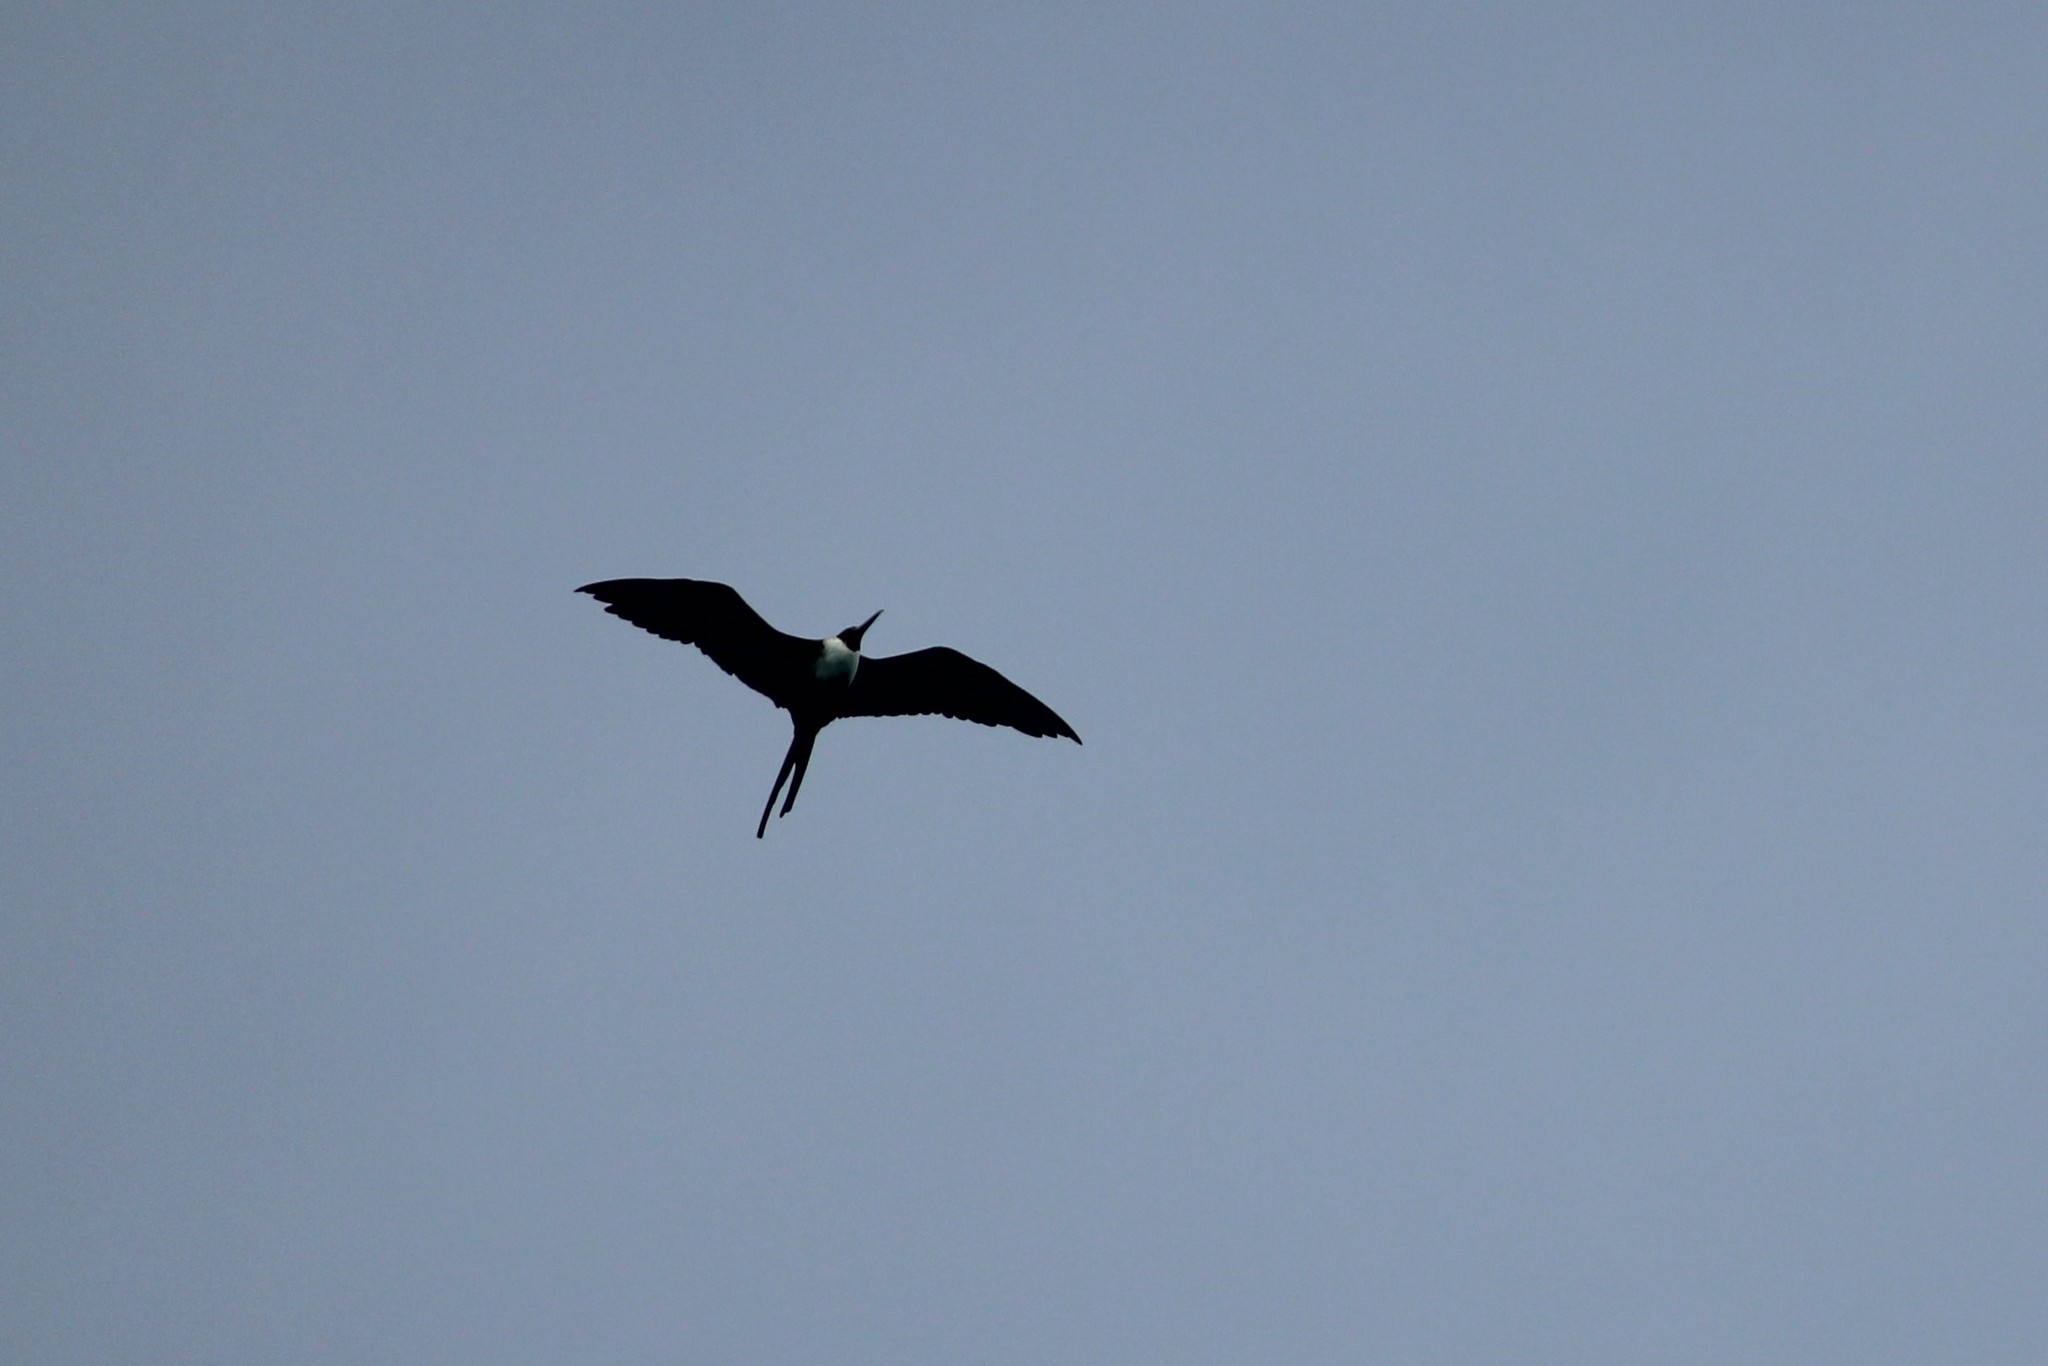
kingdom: Animalia
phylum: Chordata
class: Aves
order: Suliformes
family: Fregatidae
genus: Fregata
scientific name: Fregata magnificens
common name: Magnificent frigatebird
